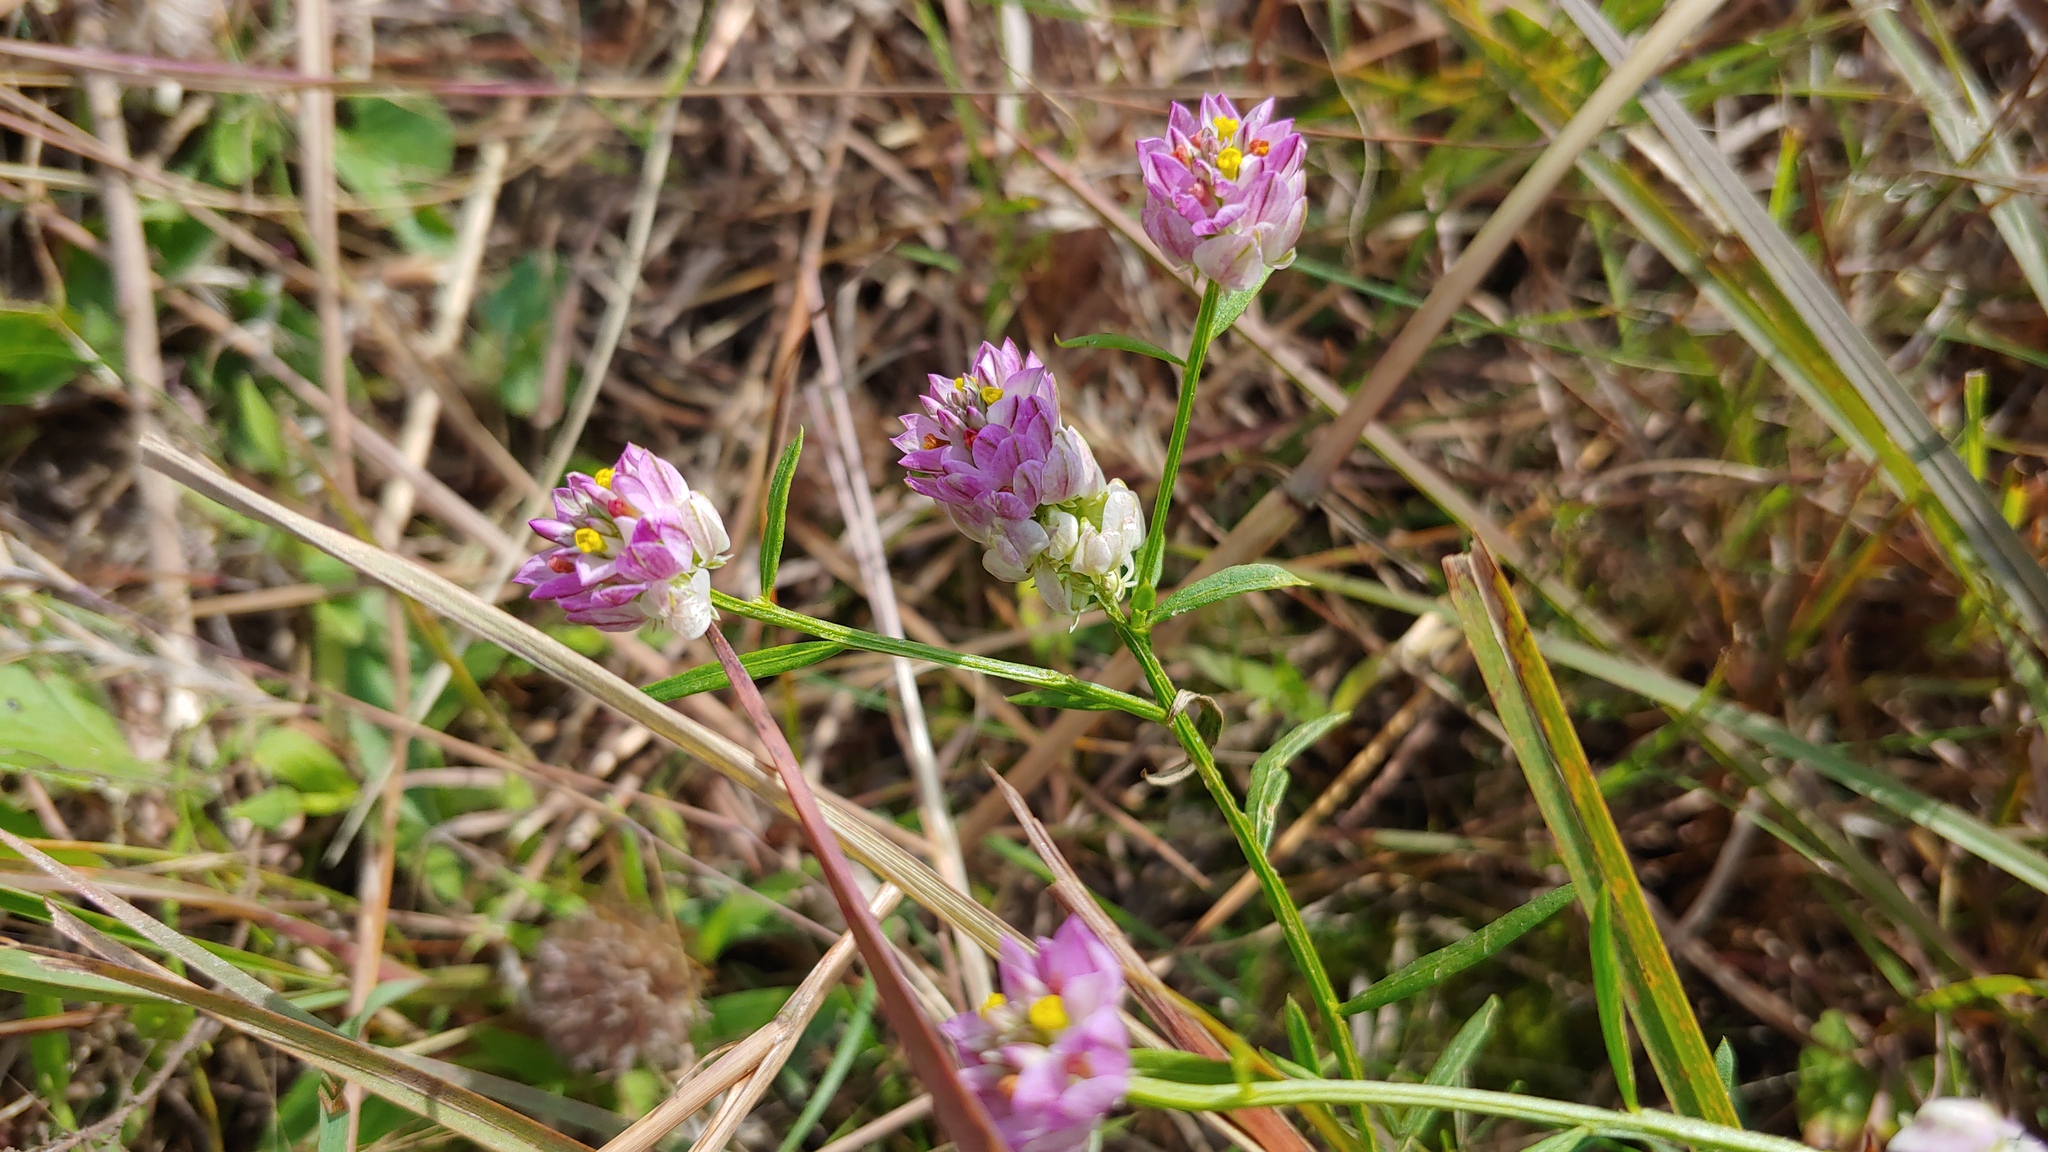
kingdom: Plantae
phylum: Tracheophyta
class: Magnoliopsida
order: Fabales
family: Polygalaceae
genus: Polygala
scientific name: Polygala sanguinea
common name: Blood milkwort
